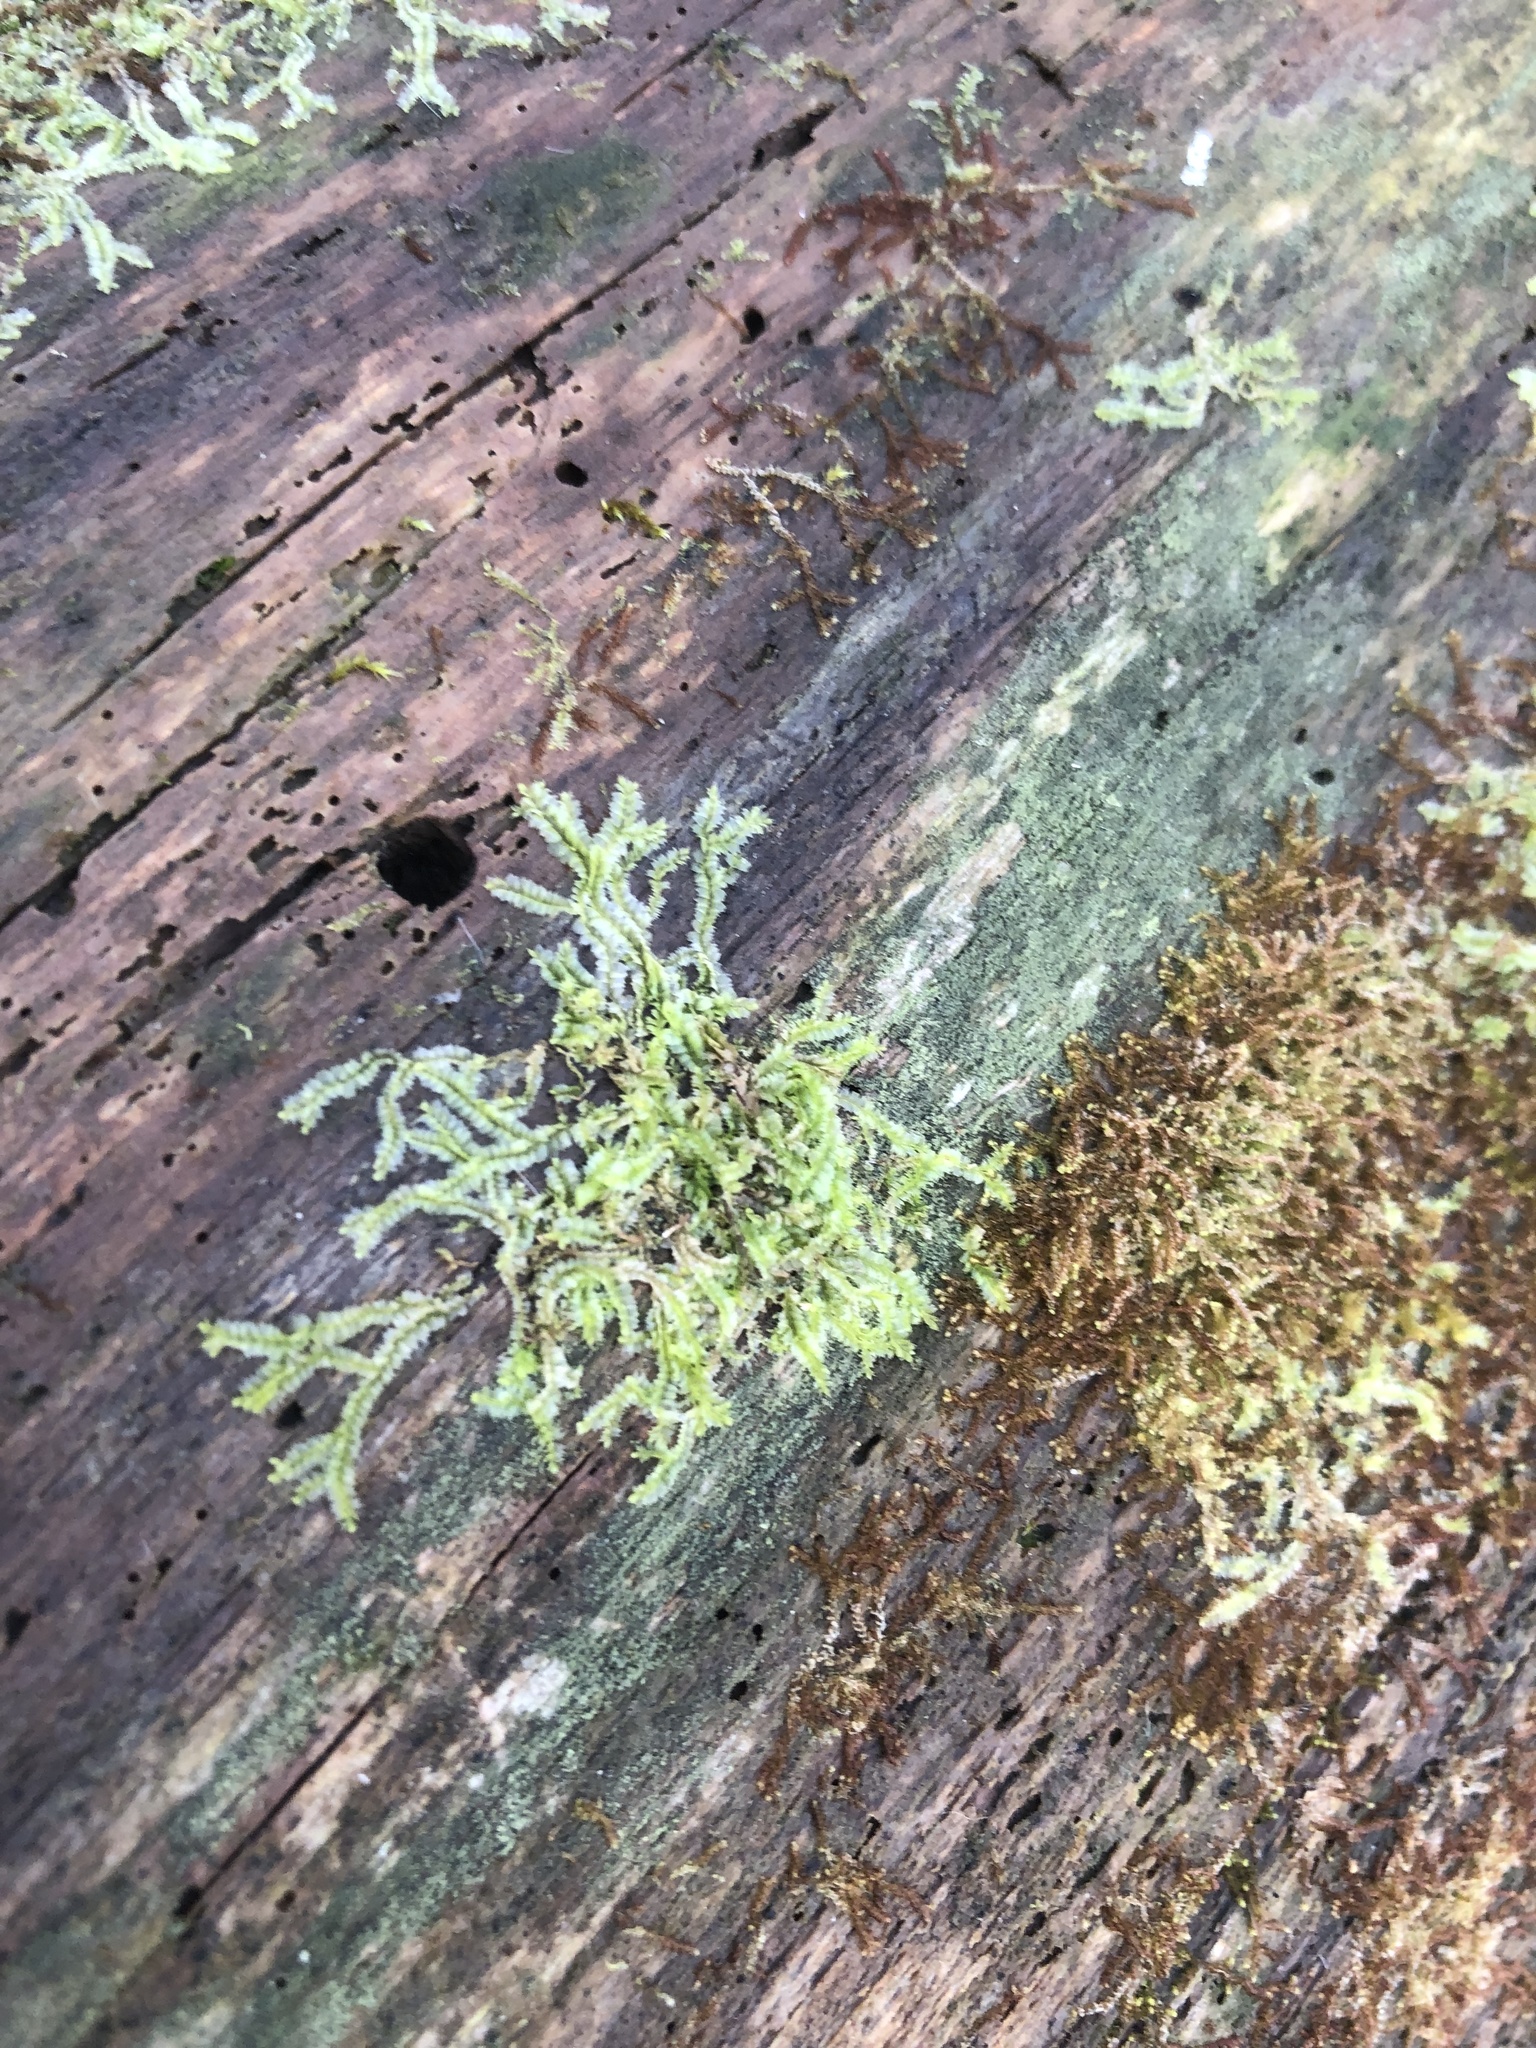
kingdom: Plantae
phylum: Marchantiophyta
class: Jungermanniopsida
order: Jungermanniales
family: Lophocoleaceae
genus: Lophocolea
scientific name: Lophocolea heterophylla
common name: Variable-leaved crestwort
